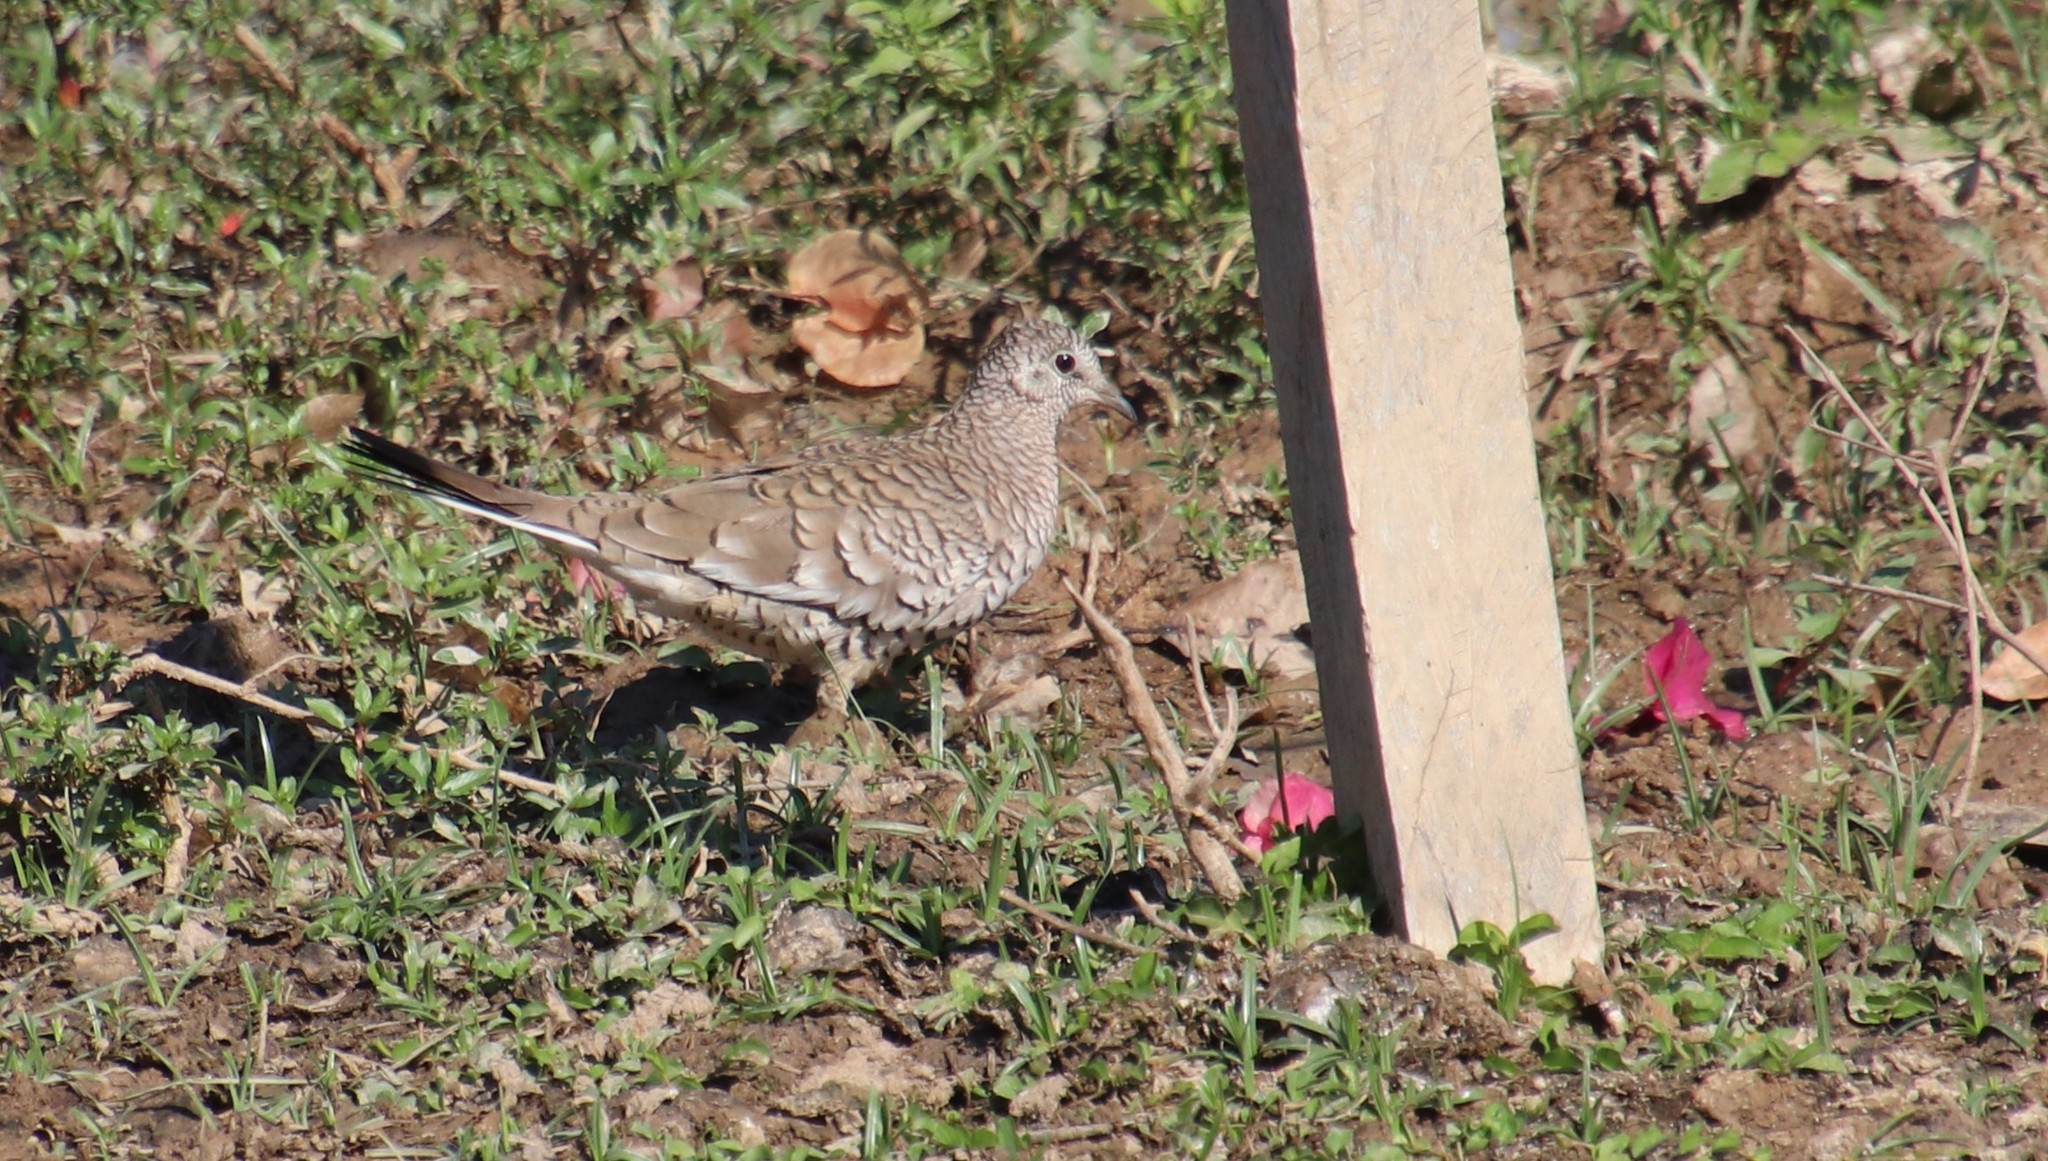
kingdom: Animalia
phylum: Chordata
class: Aves
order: Columbiformes
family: Columbidae
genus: Columbina
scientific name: Columbina squammata
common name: Scaled dove
